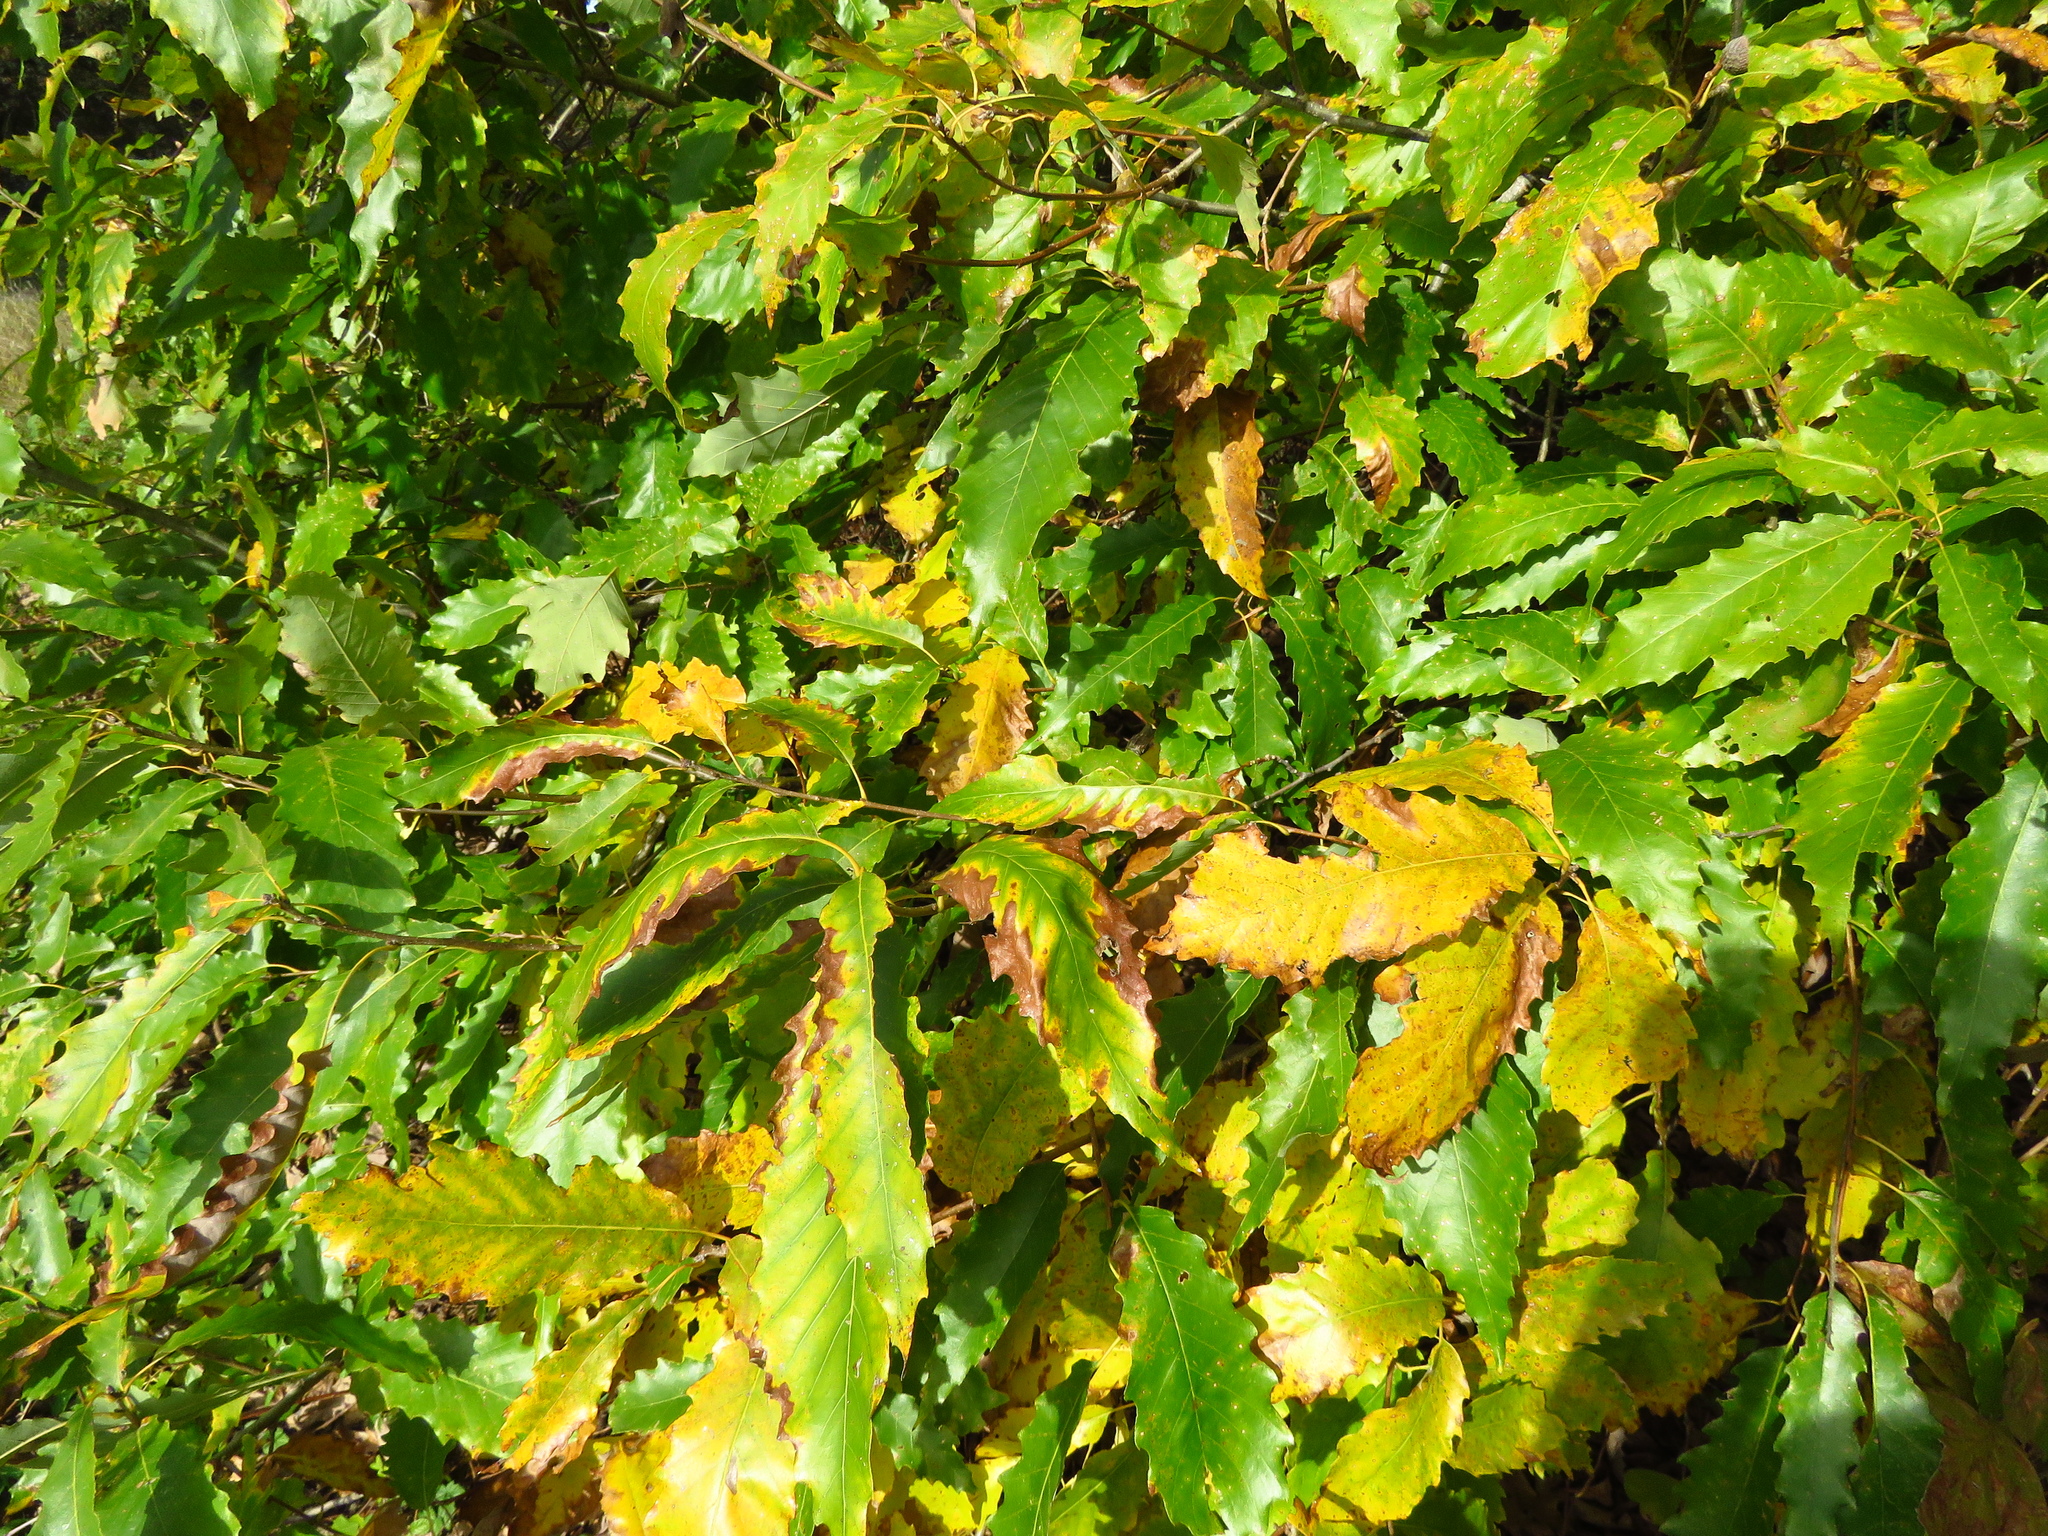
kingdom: Plantae
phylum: Tracheophyta
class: Magnoliopsida
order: Fagales
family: Fagaceae
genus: Quercus
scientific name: Quercus muehlenbergii
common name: Chinkapin oak
